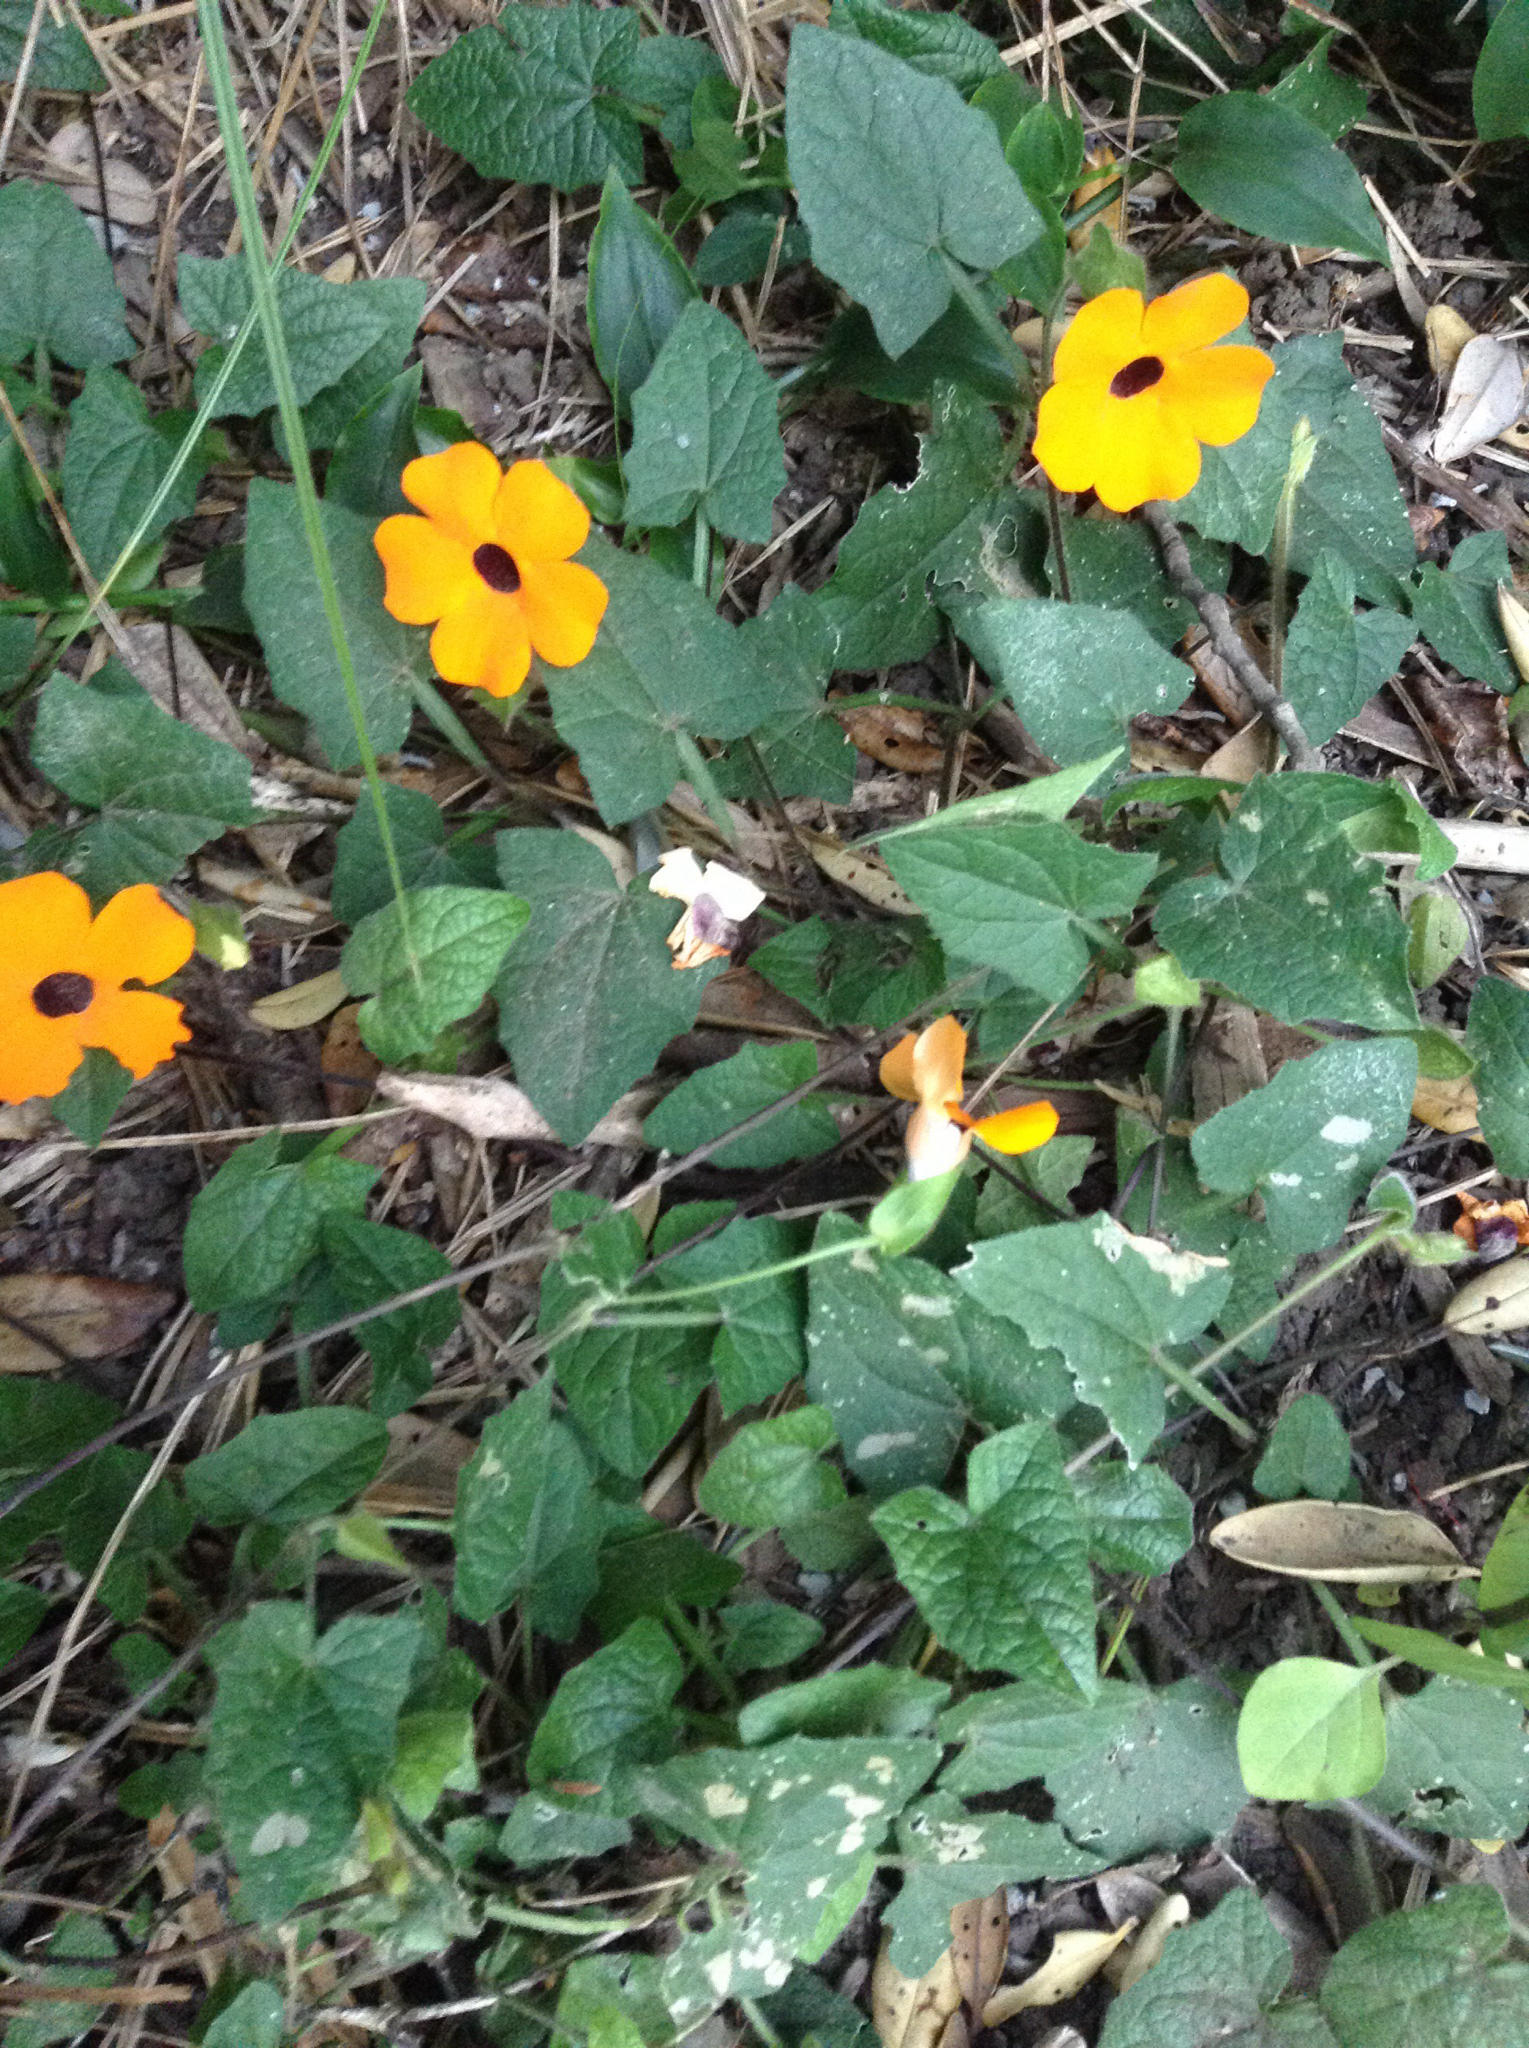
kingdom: Plantae
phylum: Tracheophyta
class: Magnoliopsida
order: Lamiales
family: Acanthaceae
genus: Thunbergia
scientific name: Thunbergia alata
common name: Blackeyed susan vine
